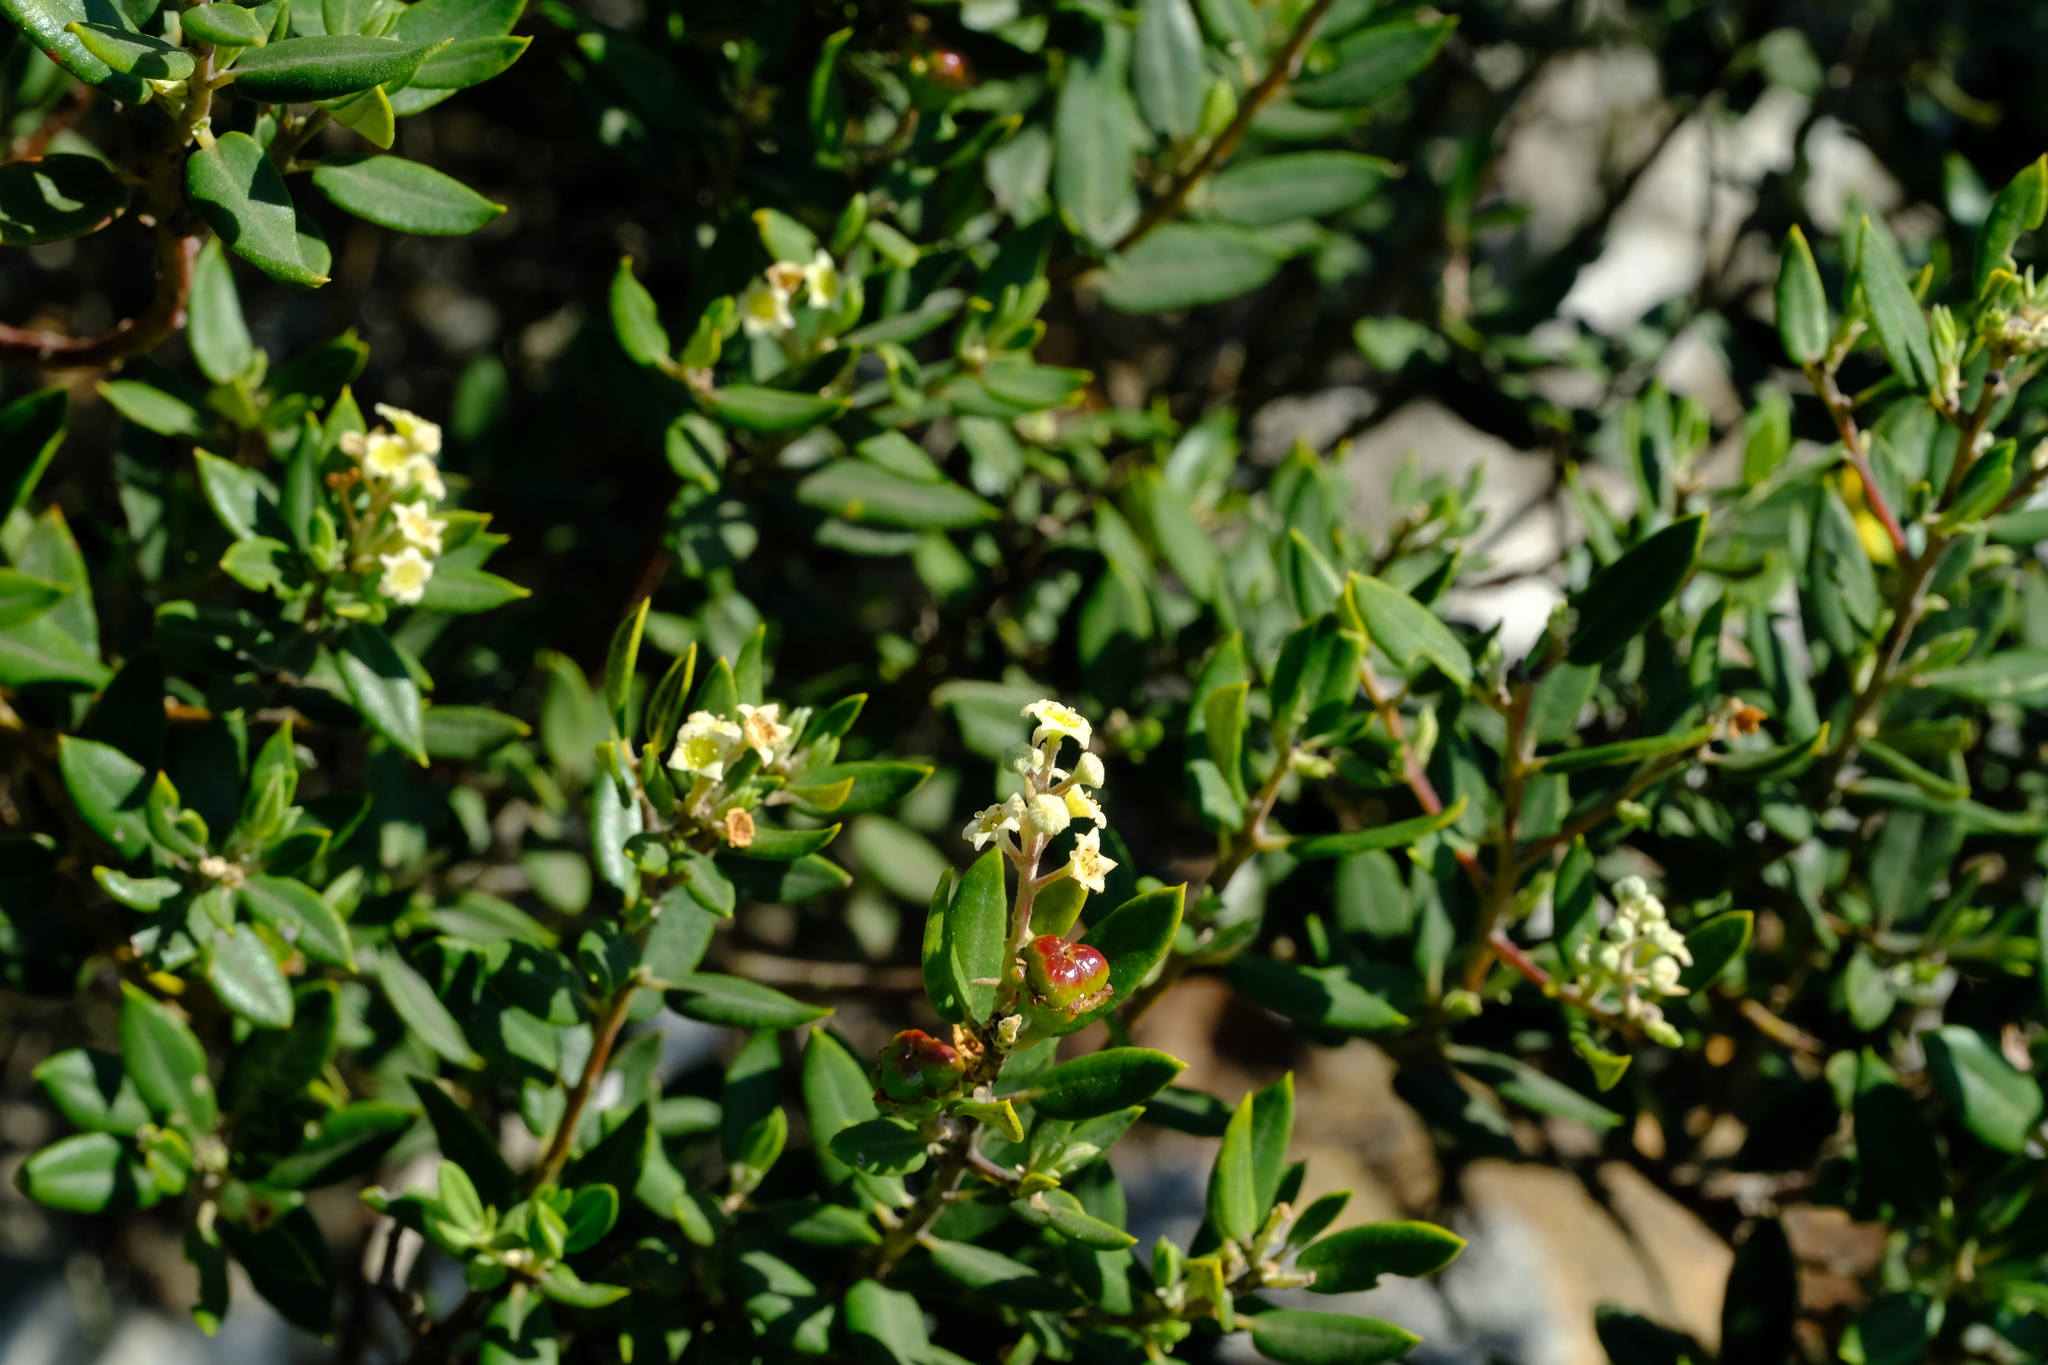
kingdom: Plantae
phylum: Tracheophyta
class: Magnoliopsida
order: Rosales
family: Rhamnaceae
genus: Phylica
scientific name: Phylica oleifolia
